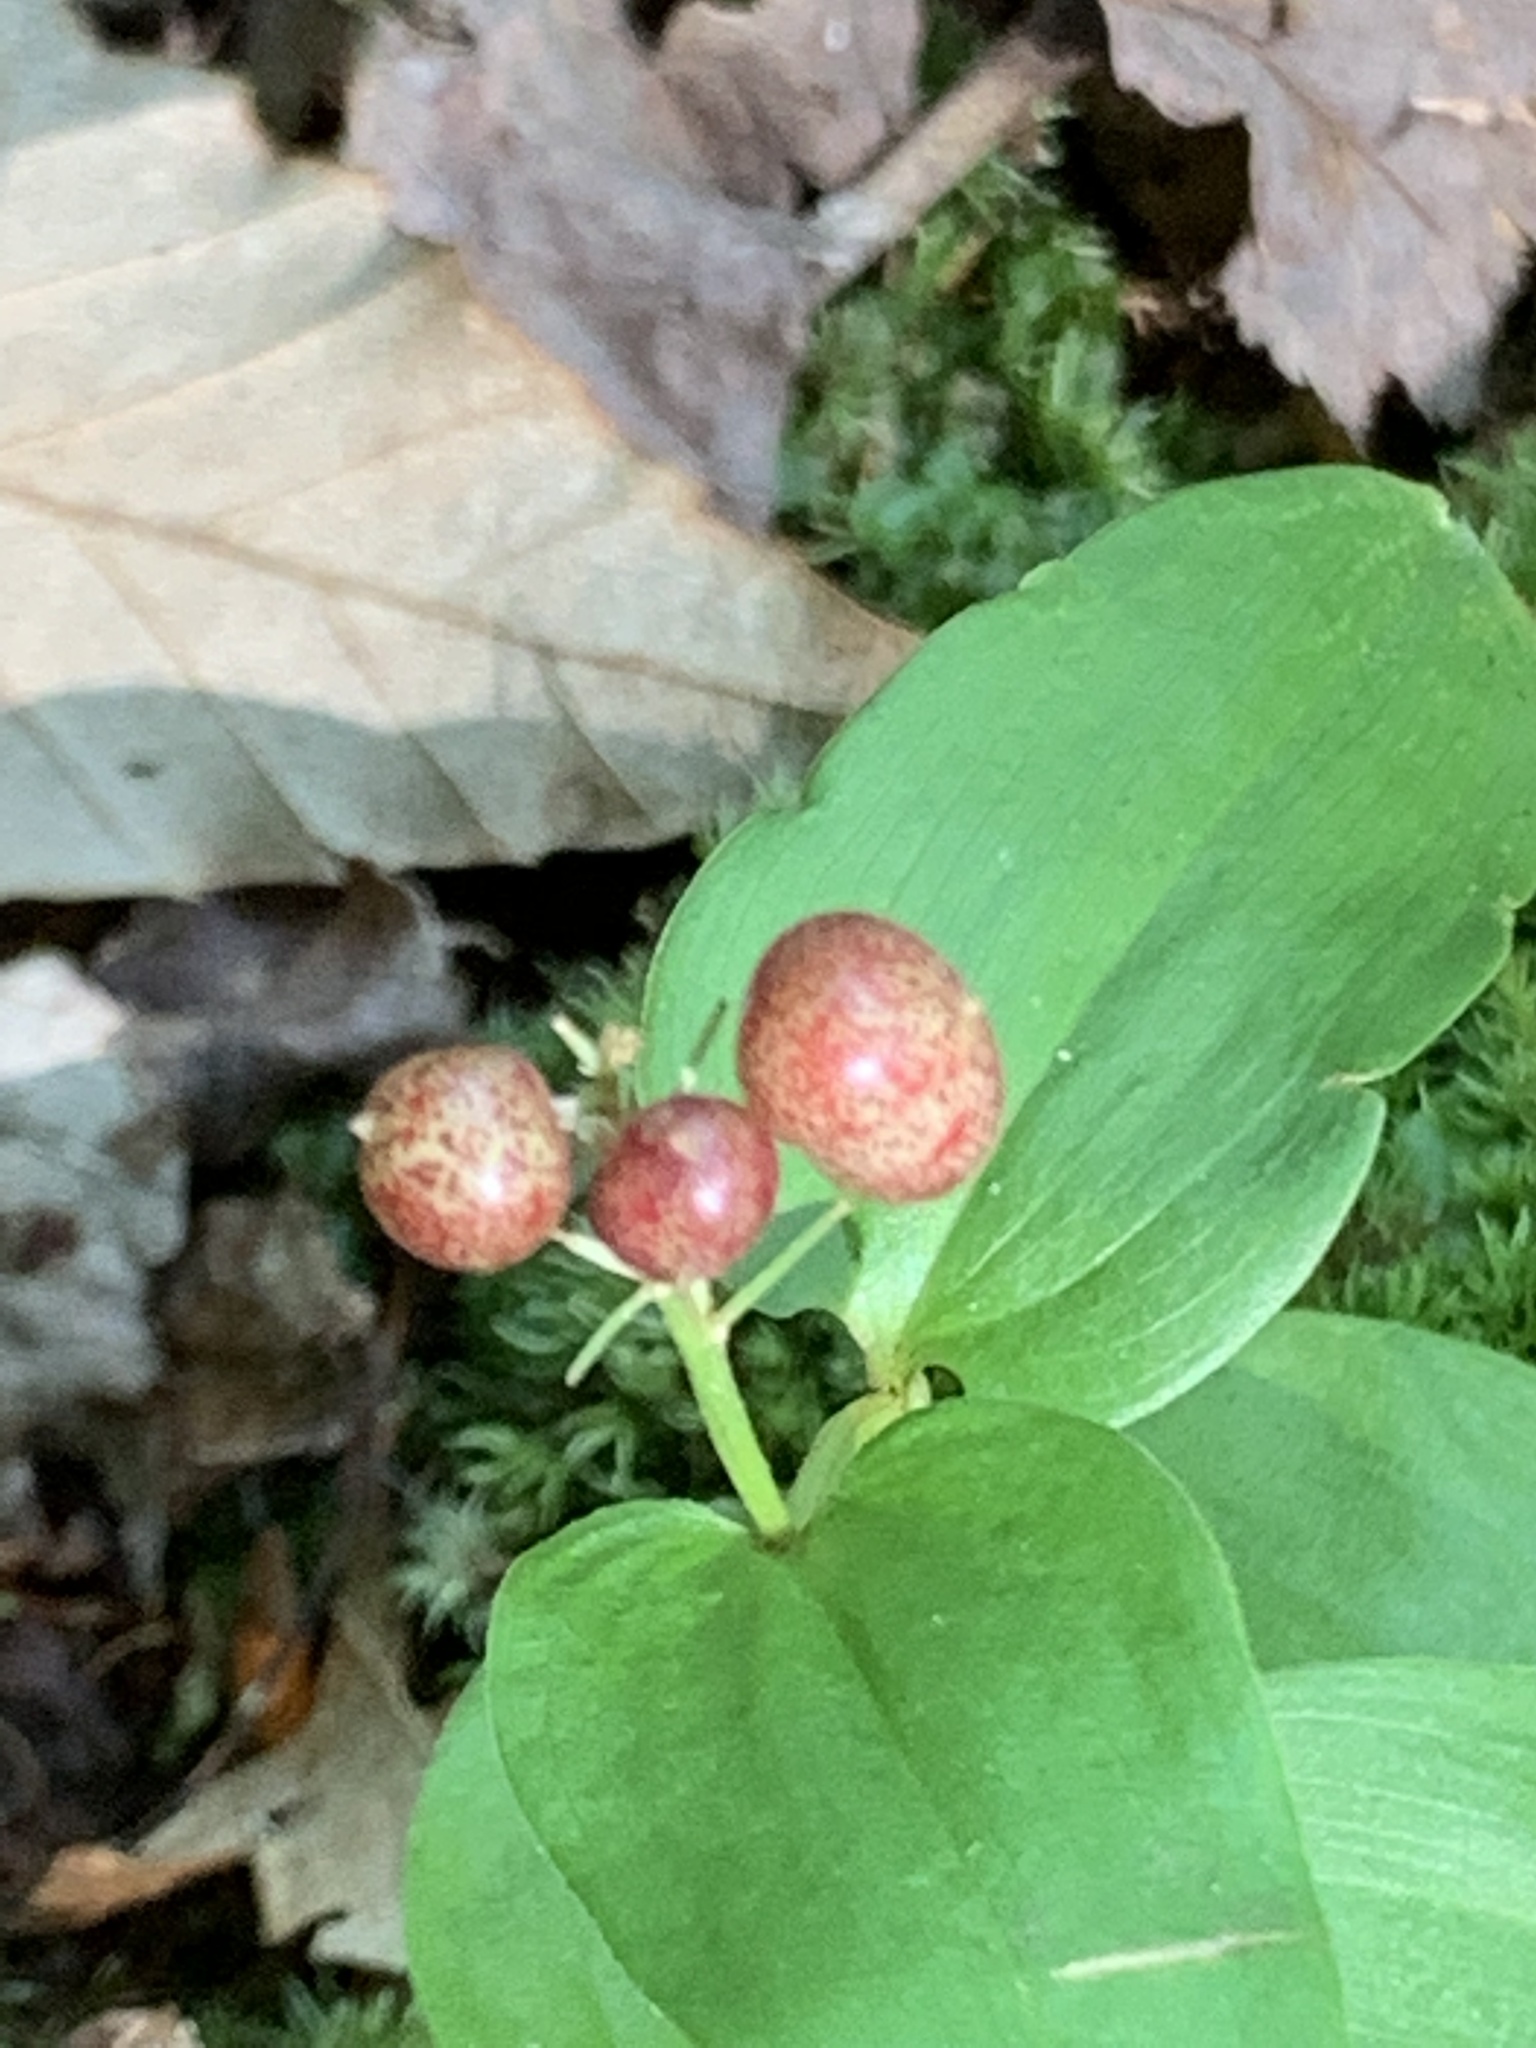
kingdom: Plantae
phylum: Tracheophyta
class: Liliopsida
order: Asparagales
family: Asparagaceae
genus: Maianthemum
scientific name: Maianthemum canadense
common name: False lily-of-the-valley
